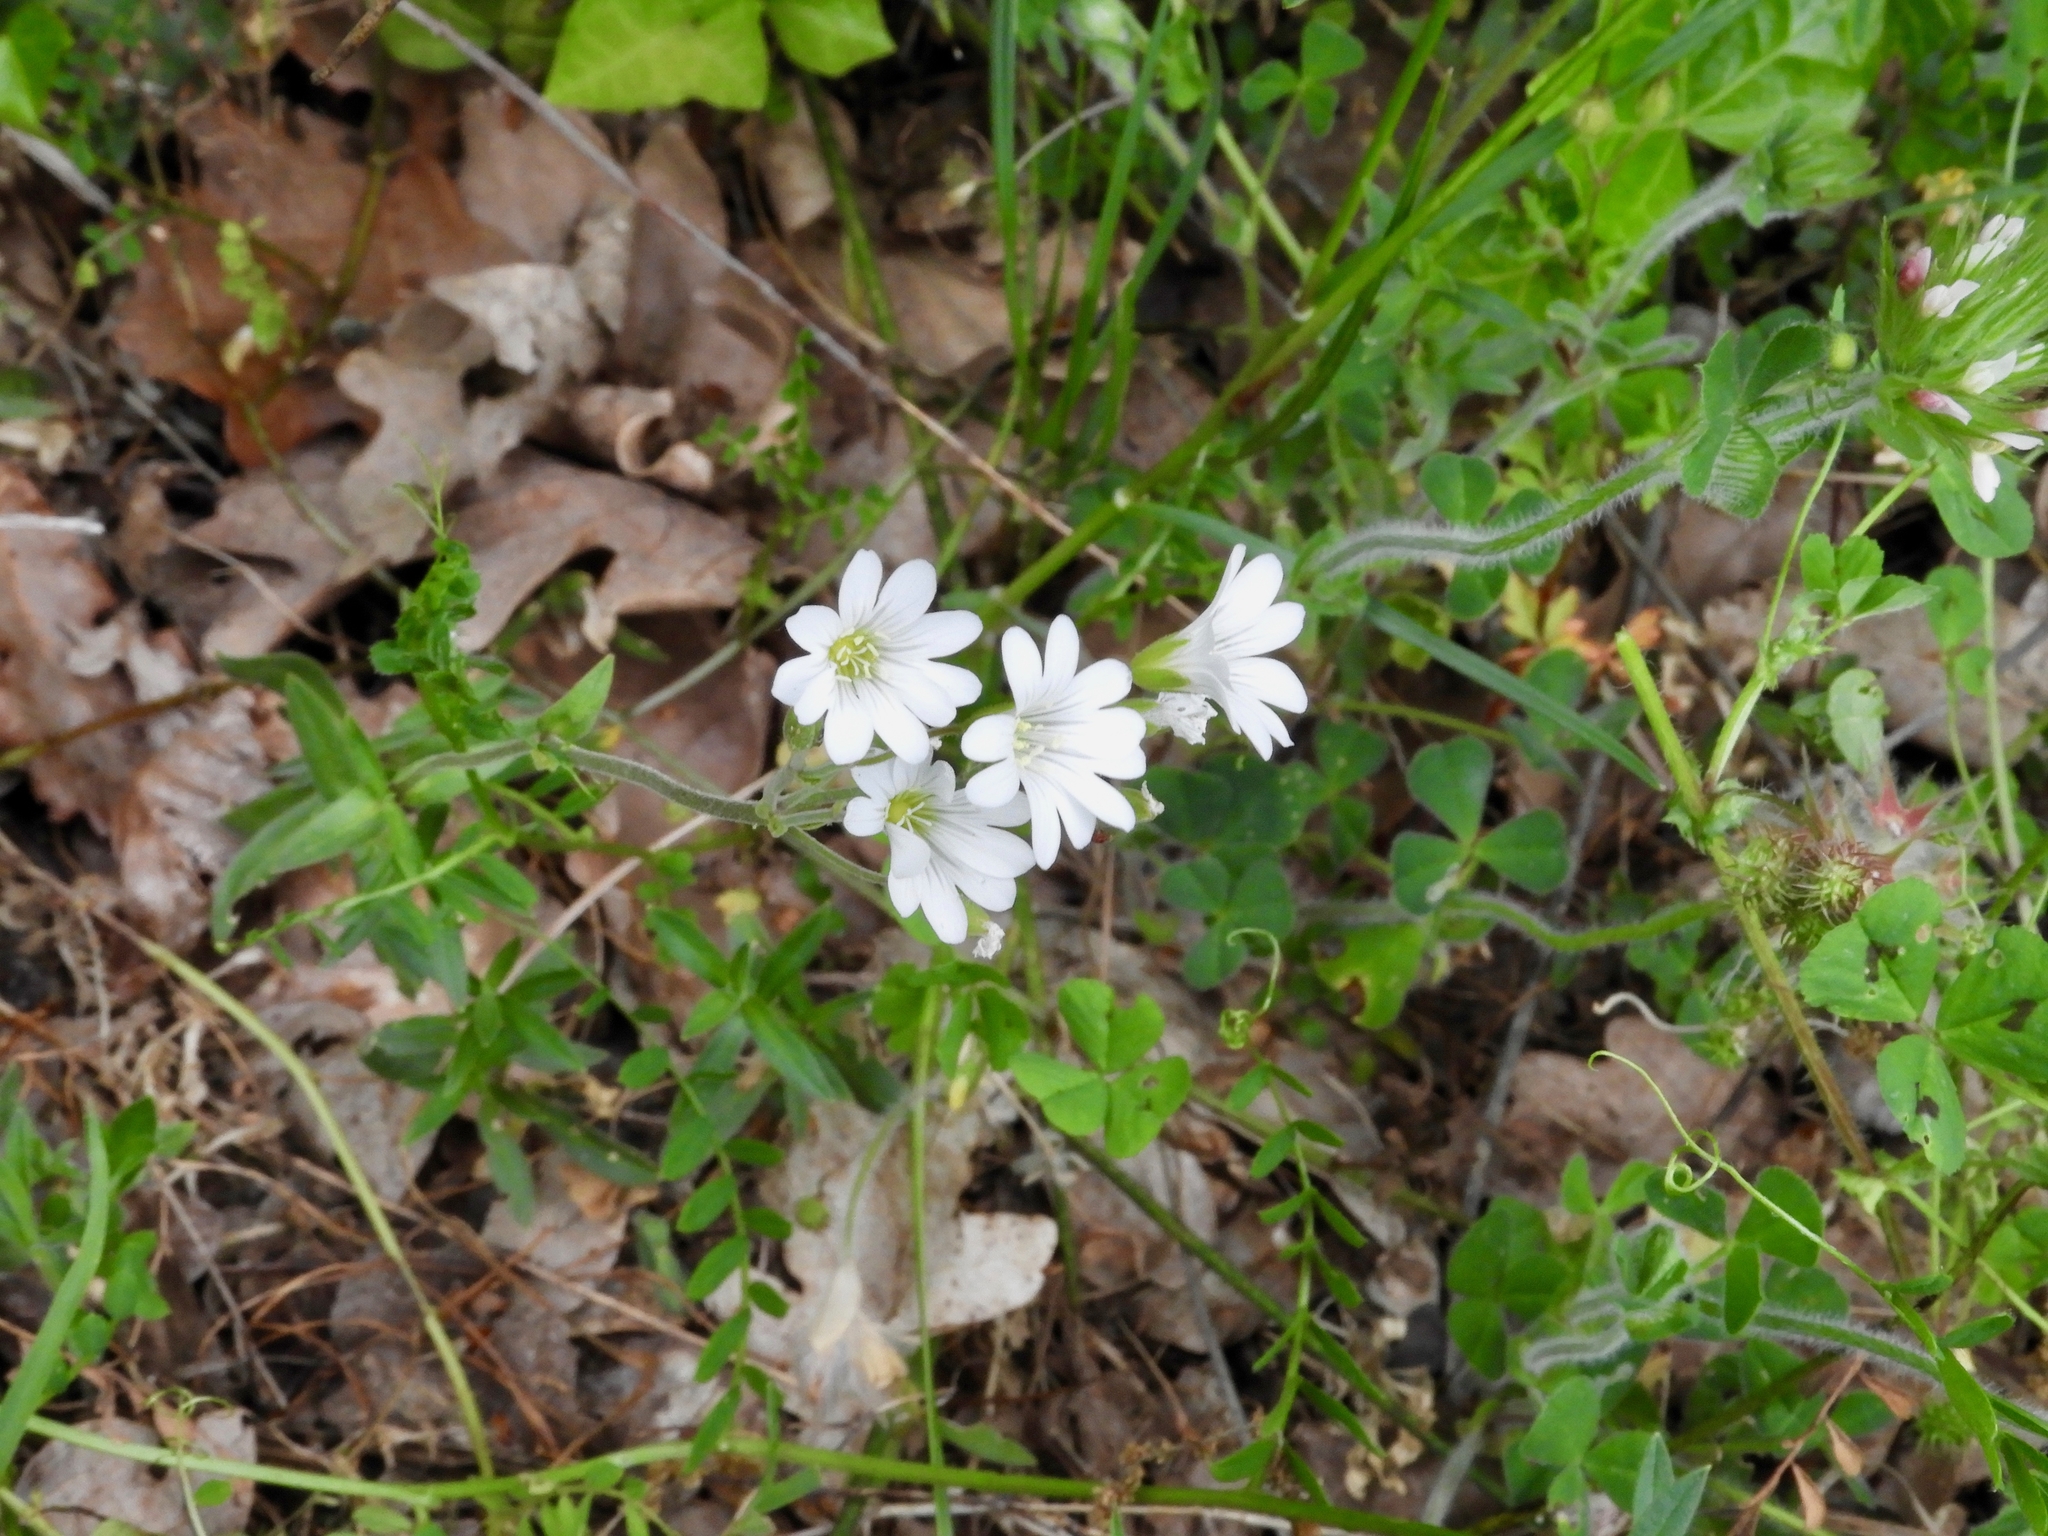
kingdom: Plantae
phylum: Tracheophyta
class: Magnoliopsida
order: Caryophyllales
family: Caryophyllaceae
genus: Cerastium
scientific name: Cerastium arvense
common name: Field mouse-ear
